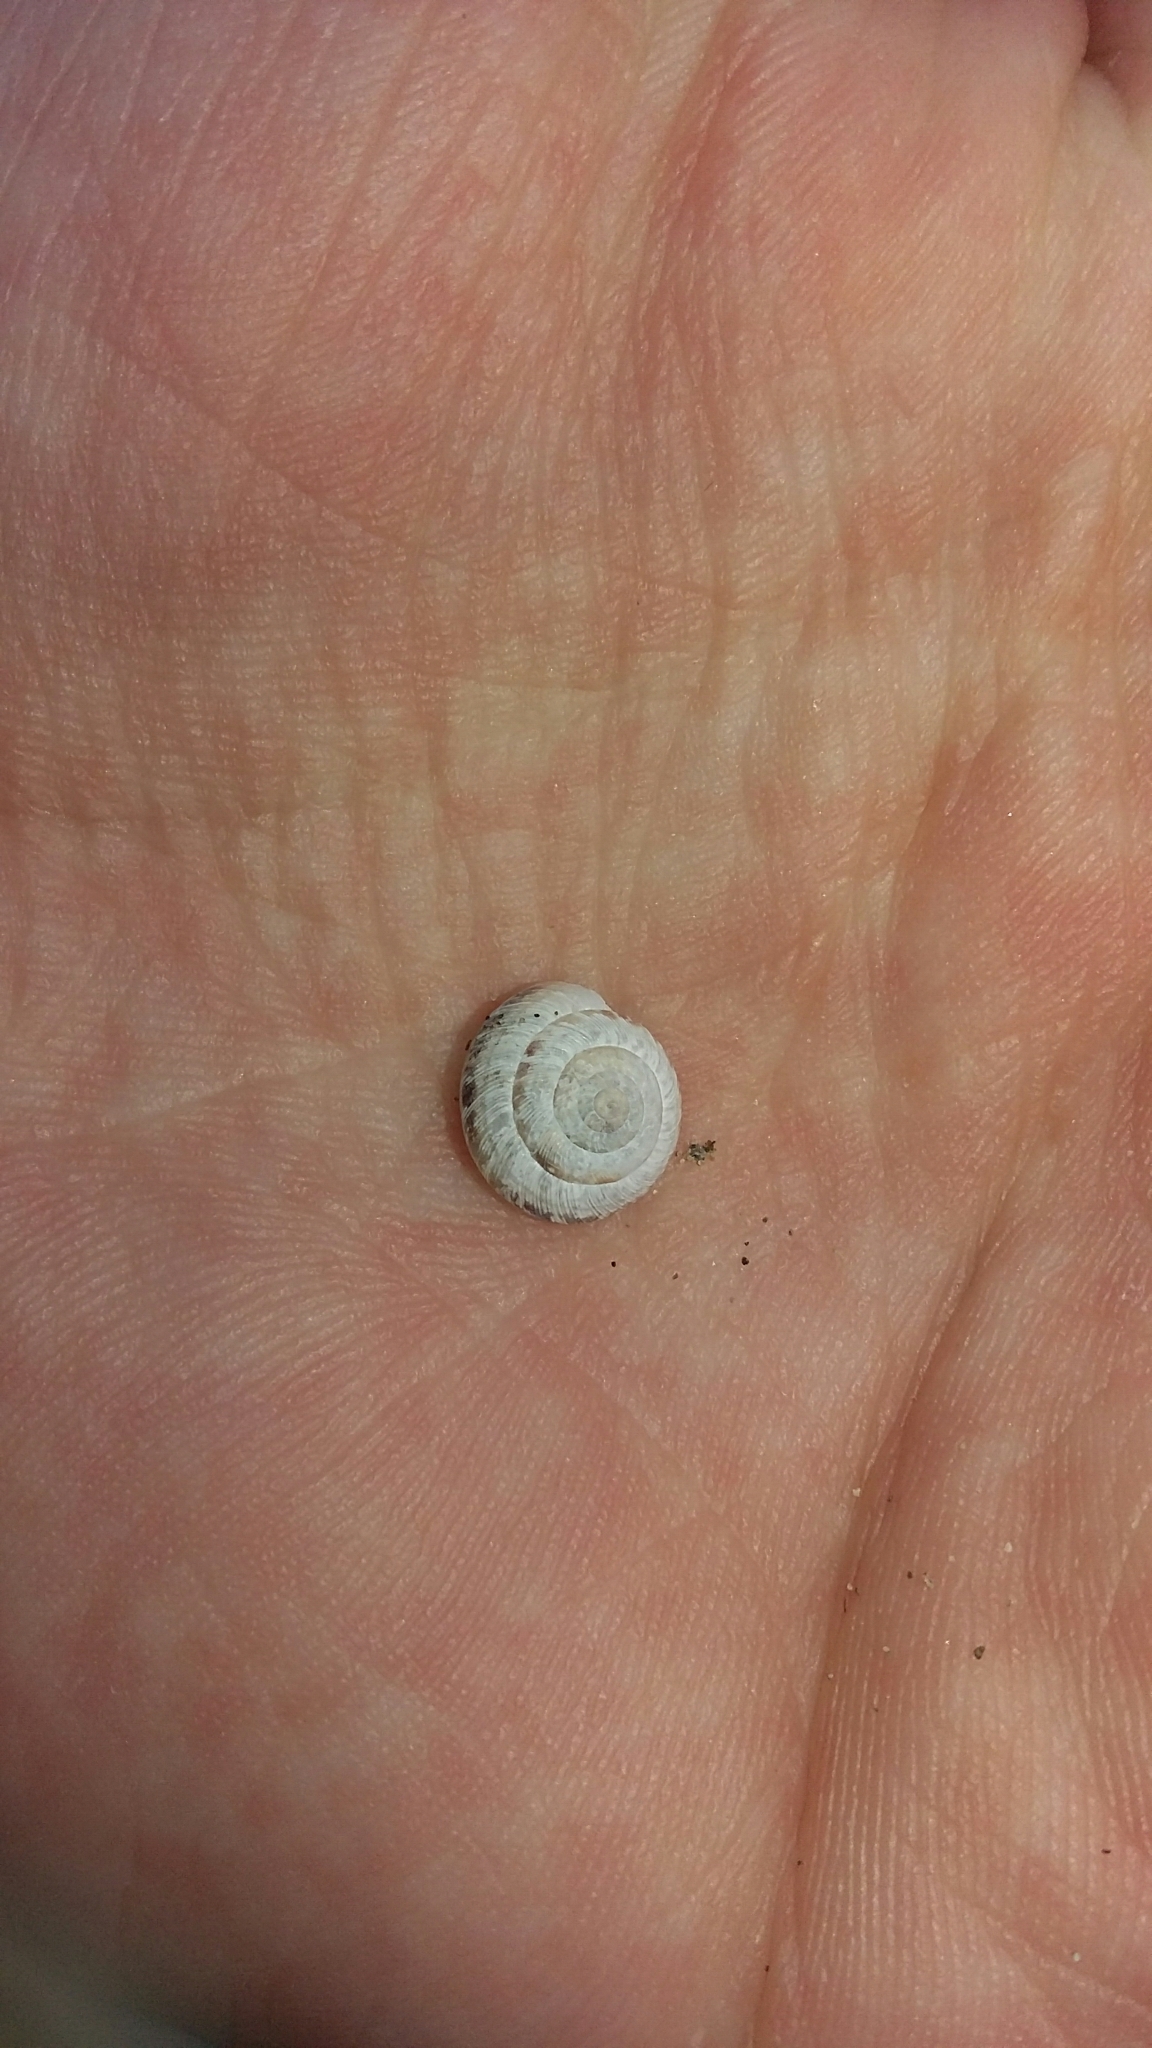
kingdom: Animalia
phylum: Mollusca
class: Gastropoda
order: Stylommatophora
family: Geomitridae
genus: Xeroplexa
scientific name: Xeroplexa intersecta
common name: Wrinkled snail
